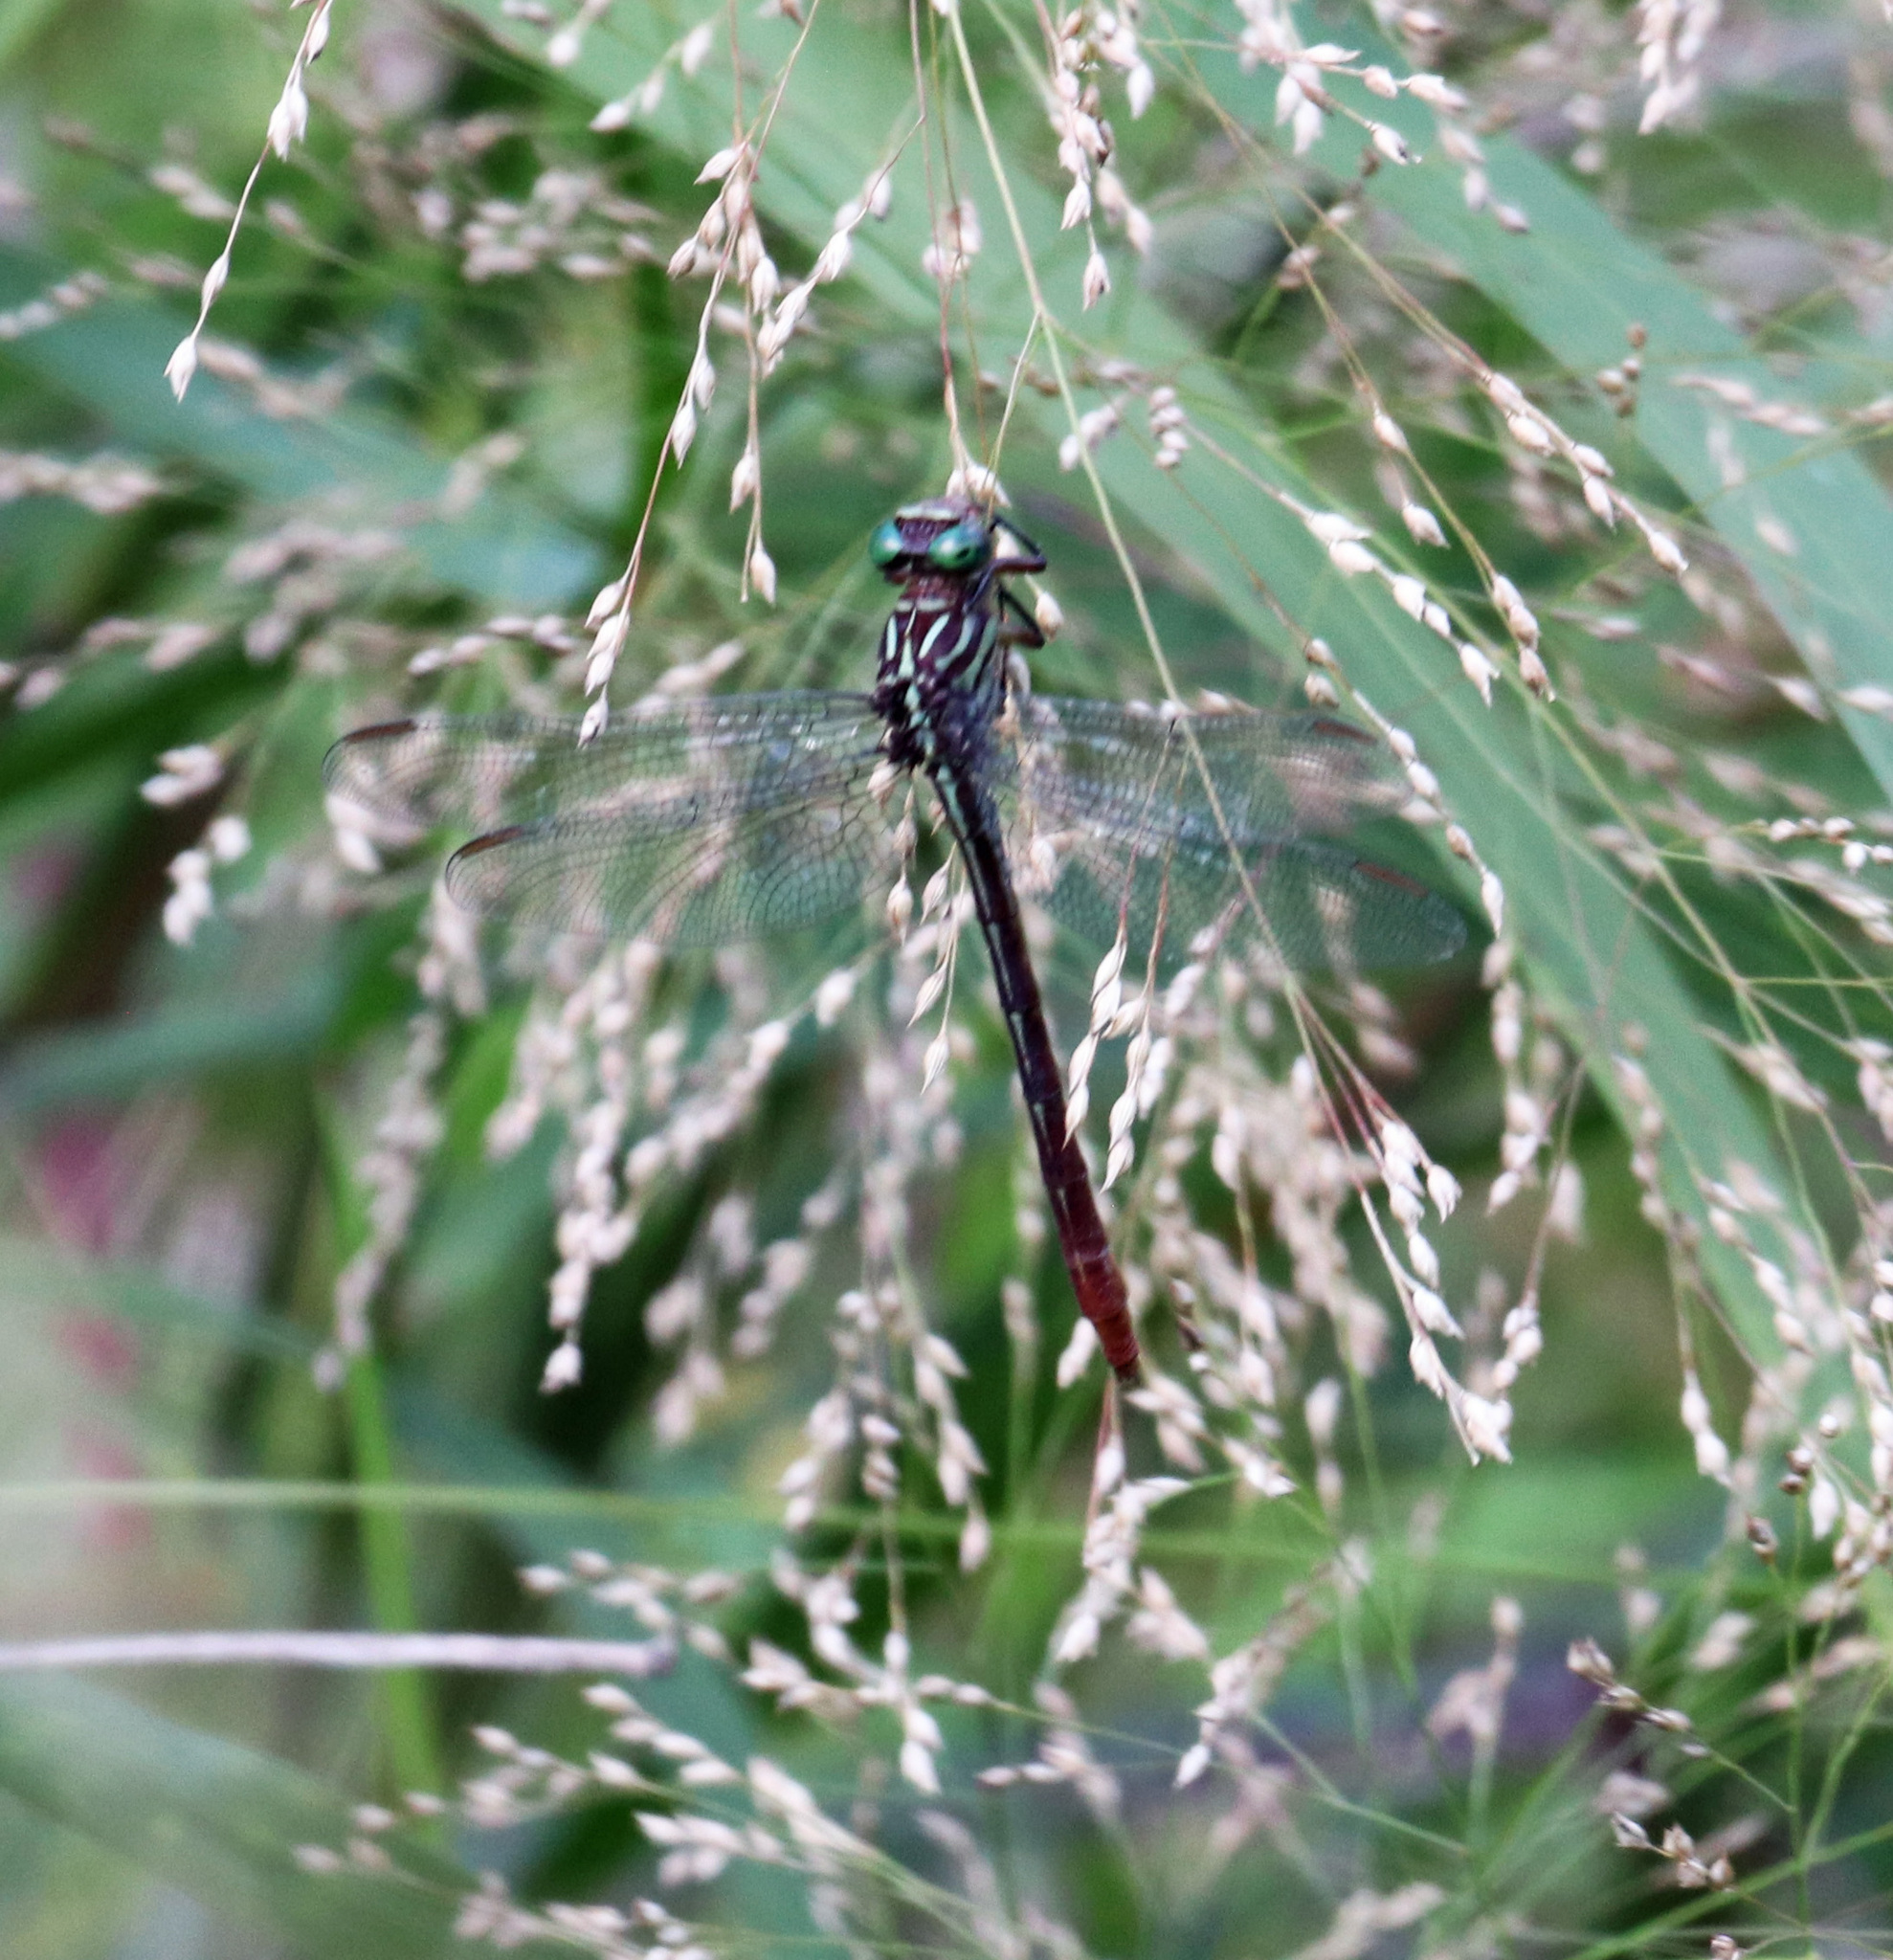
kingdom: Animalia
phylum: Arthropoda
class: Insecta
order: Odonata
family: Gomphidae
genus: Stylurus
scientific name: Stylurus plagiatus
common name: Russet-tipped clubtail
